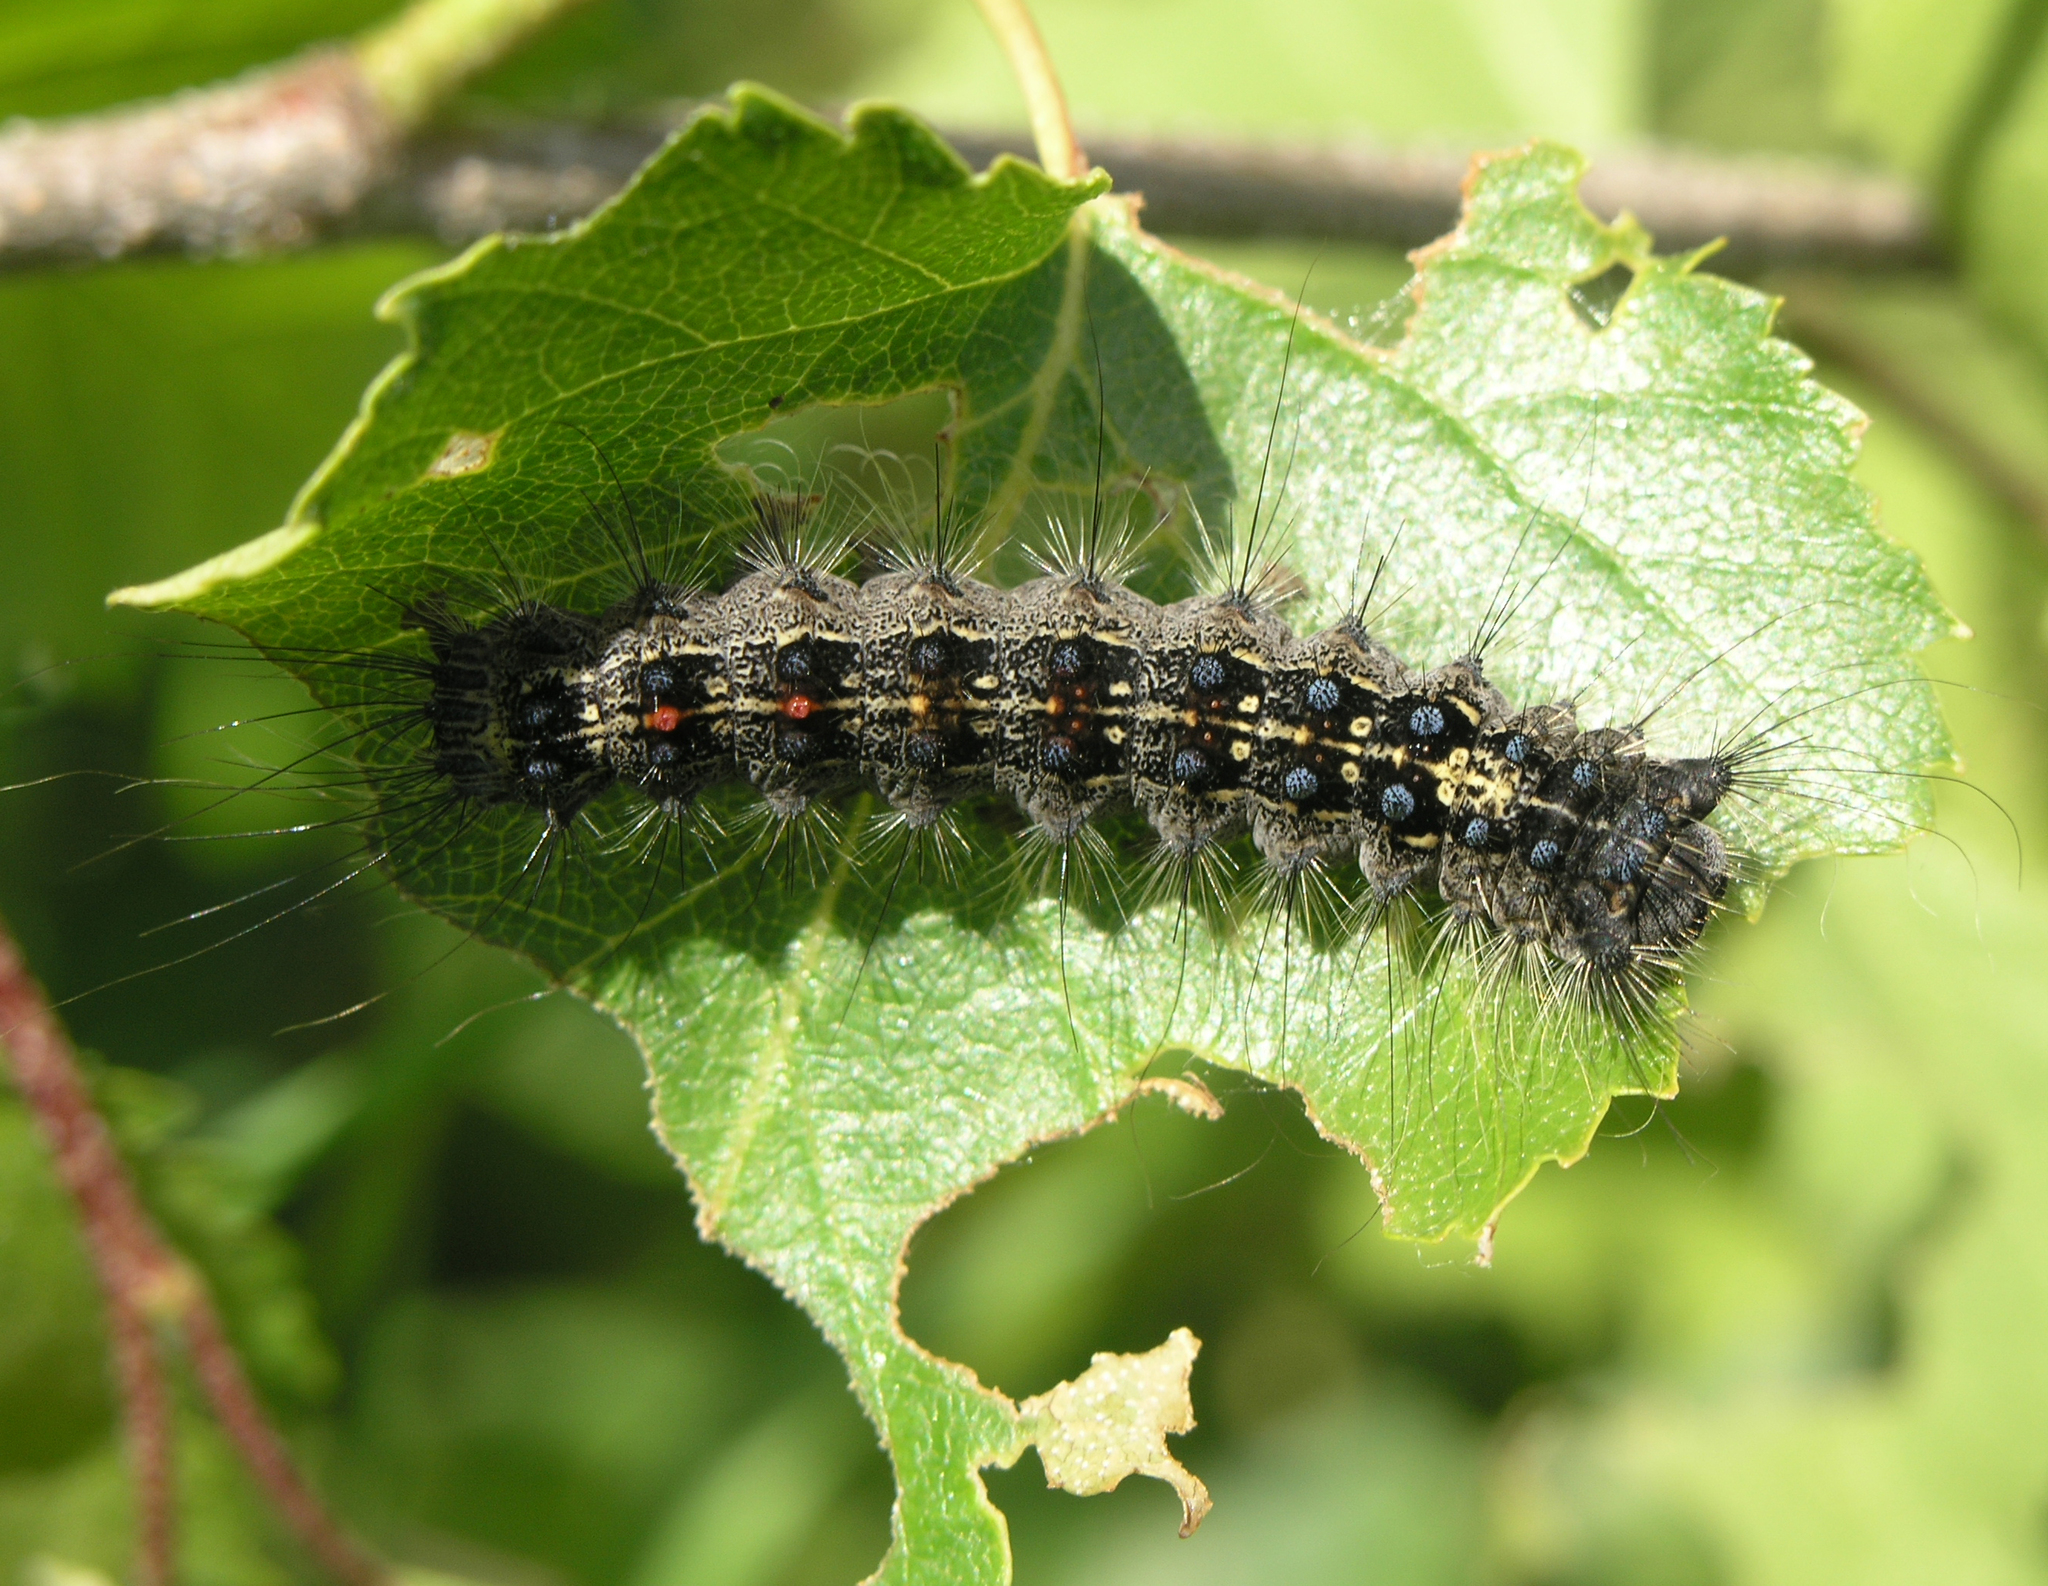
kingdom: Animalia
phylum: Arthropoda
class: Insecta
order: Lepidoptera
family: Erebidae
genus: Lymantria
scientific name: Lymantria dispar
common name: Gypsy moth
